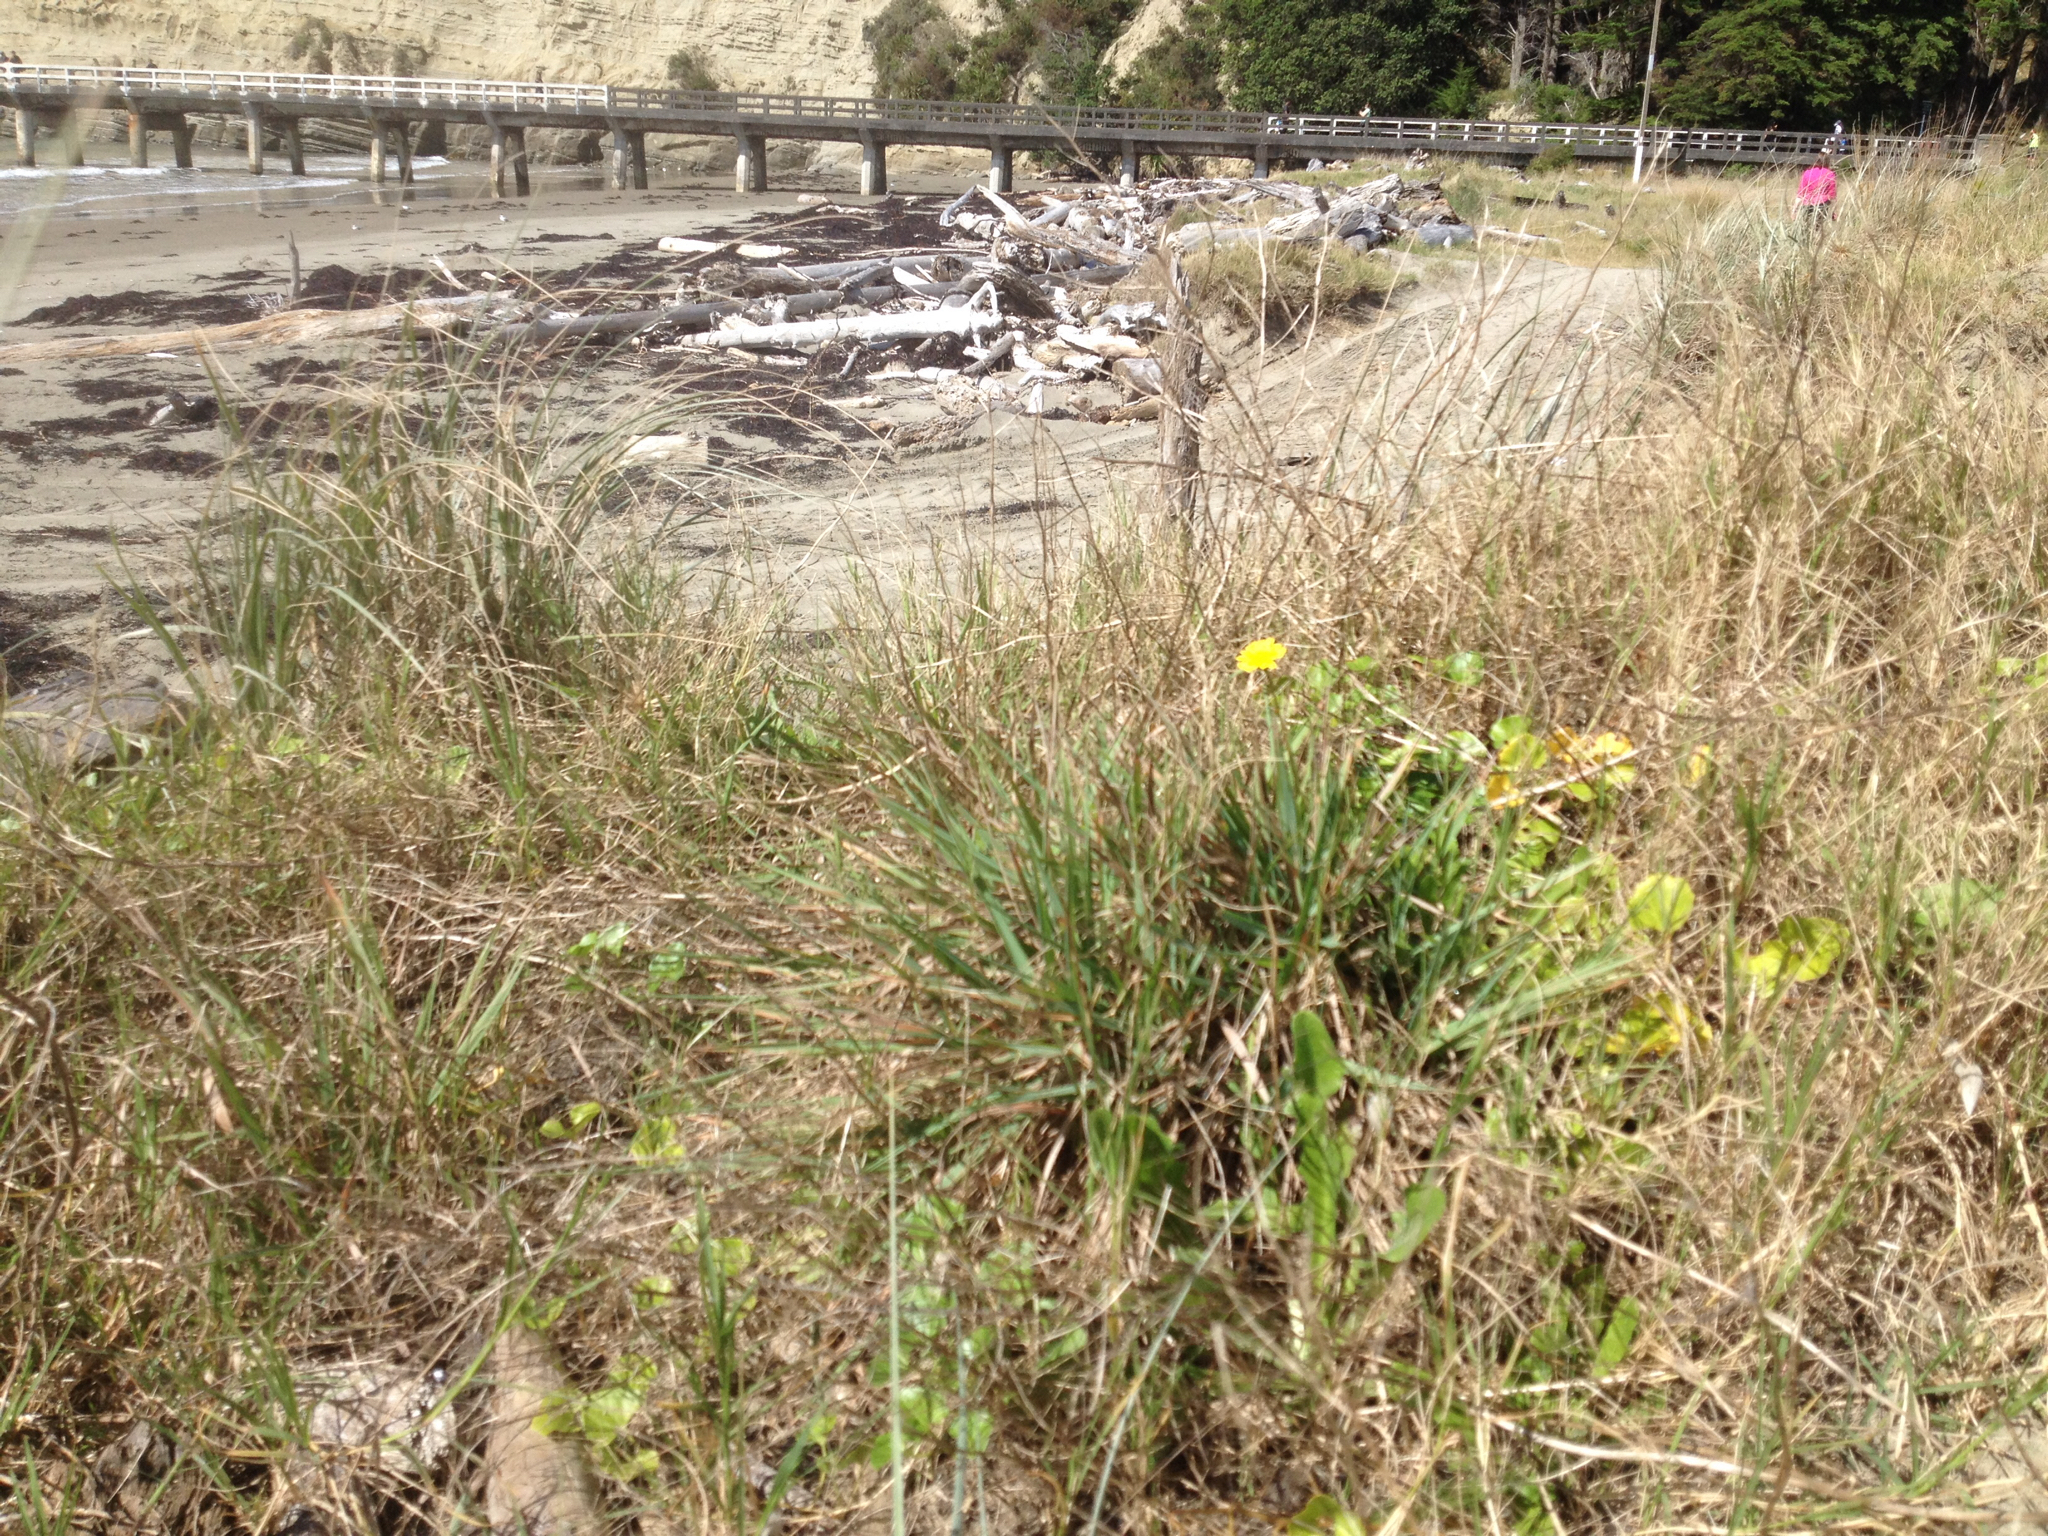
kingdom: Plantae
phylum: Tracheophyta
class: Liliopsida
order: Poales
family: Poaceae
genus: Lachnagrostis
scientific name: Lachnagrostis billardierei
